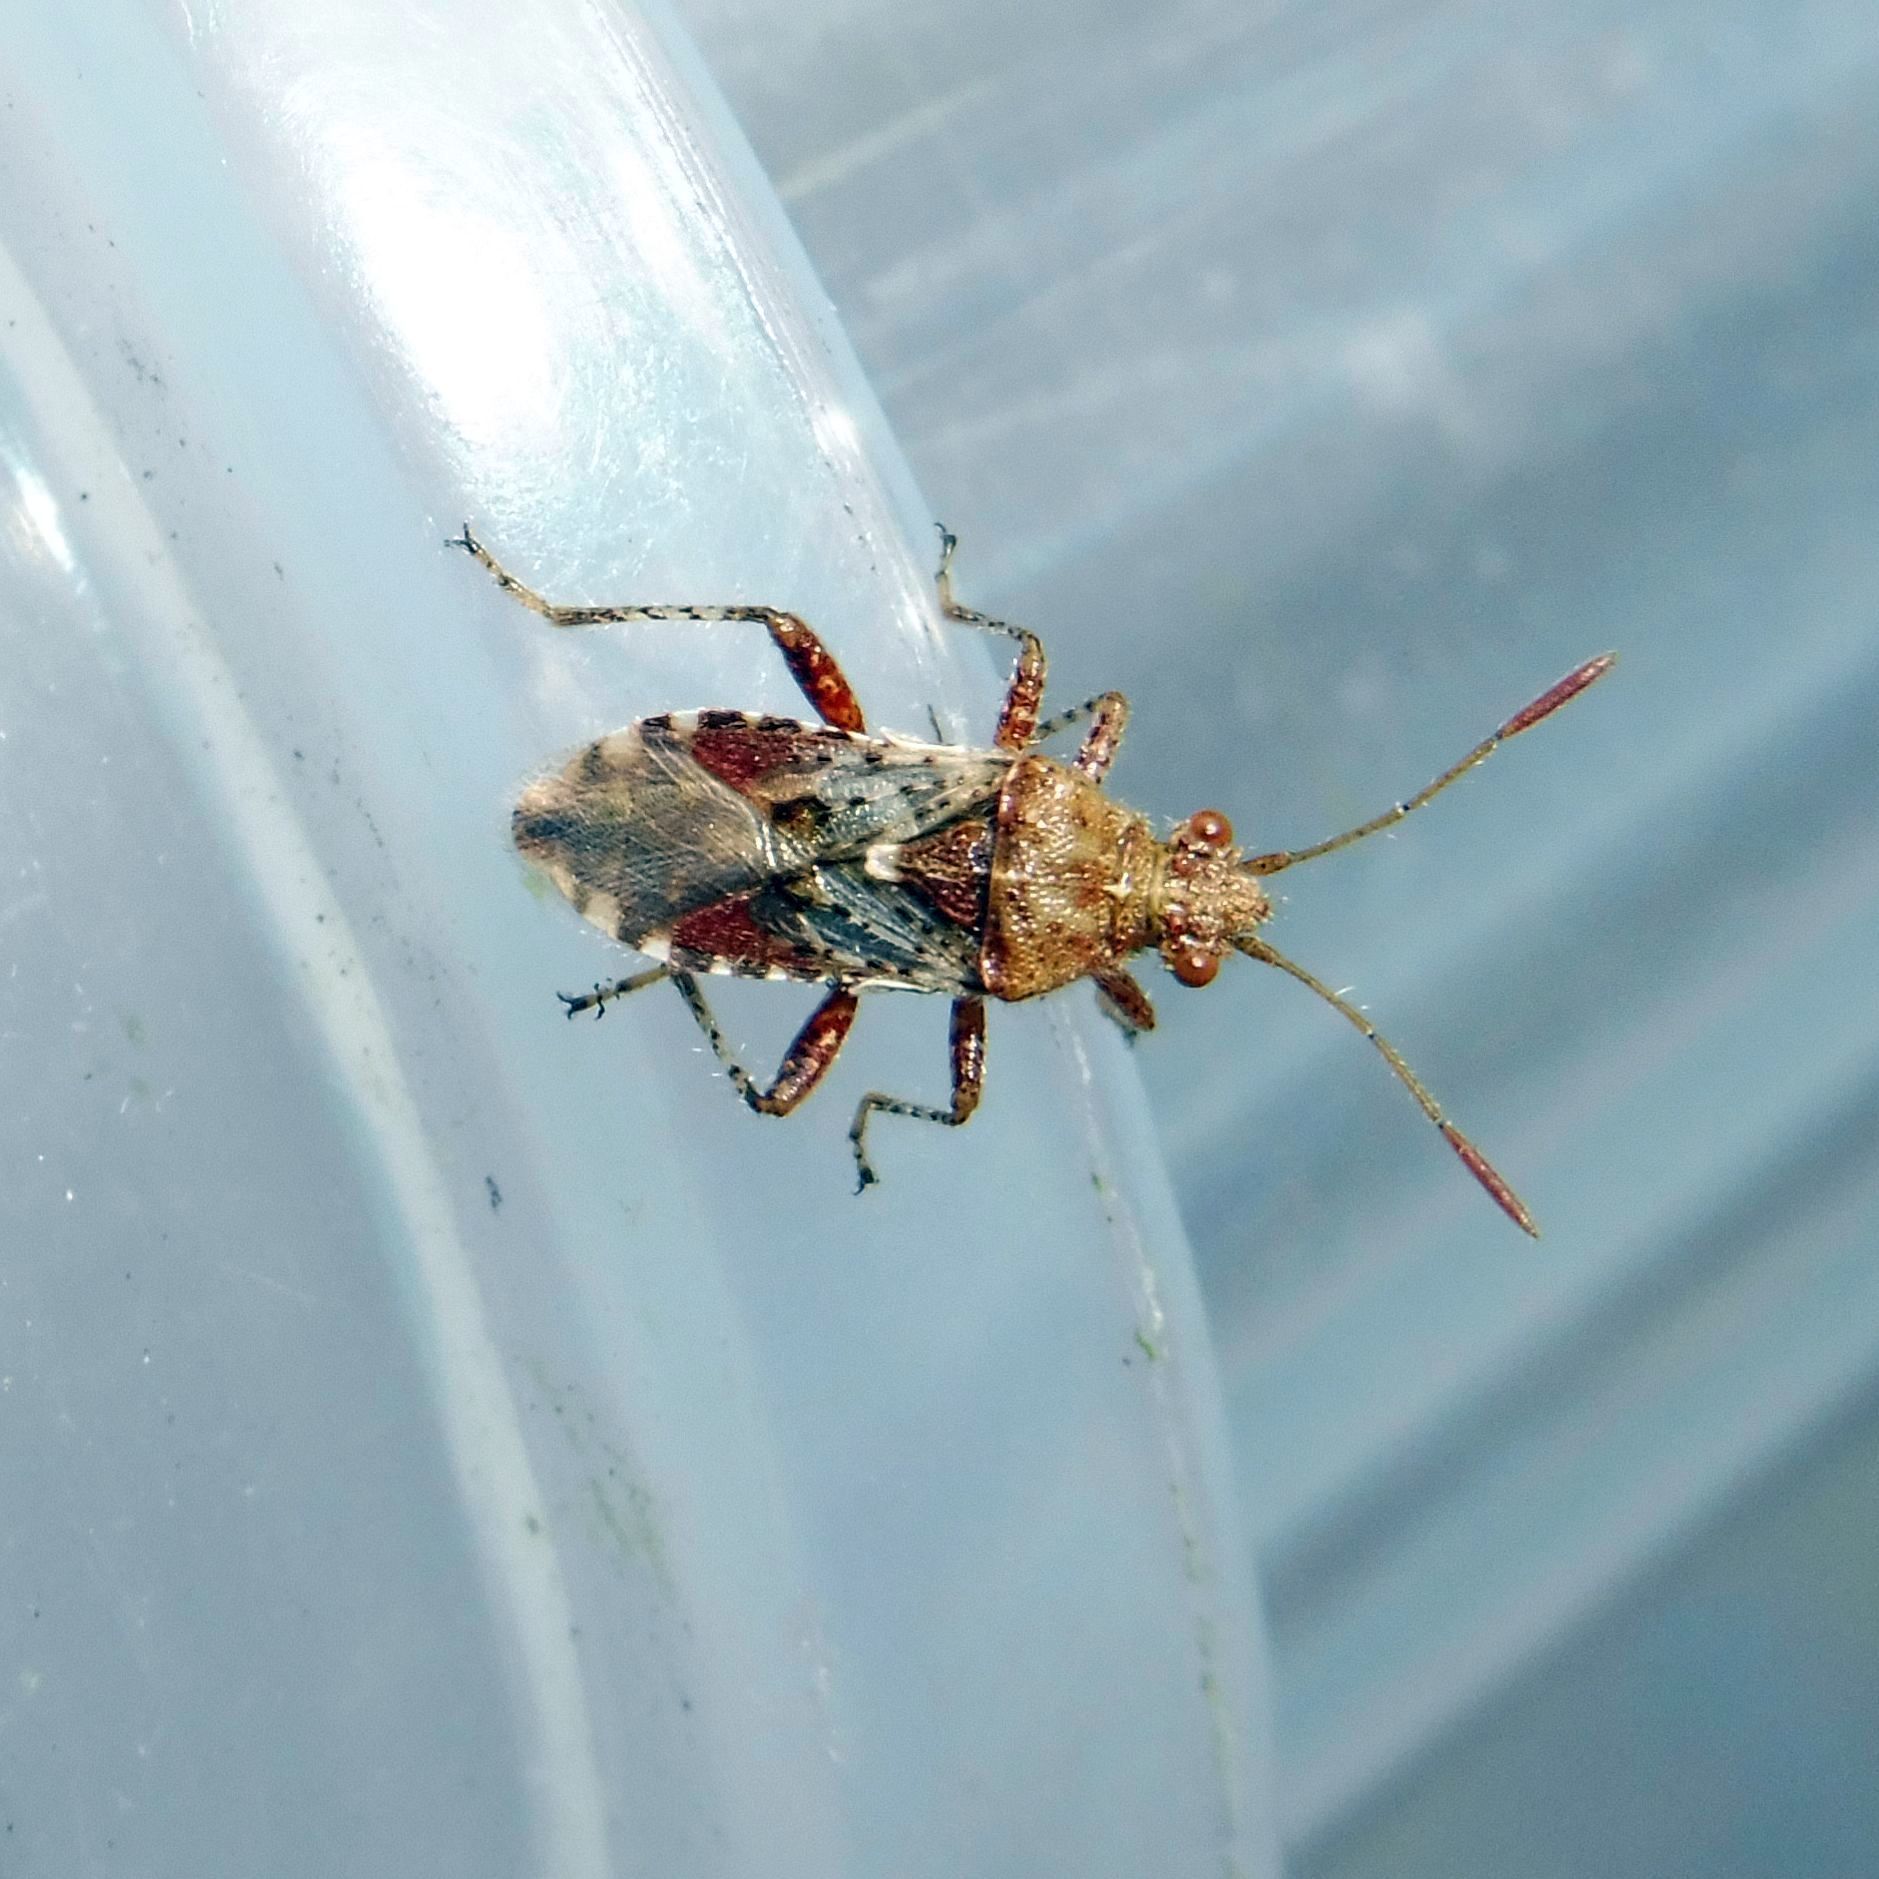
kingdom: Animalia
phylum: Arthropoda
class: Insecta
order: Hemiptera
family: Rhopalidae
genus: Rhopalus
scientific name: Rhopalus subrufus
